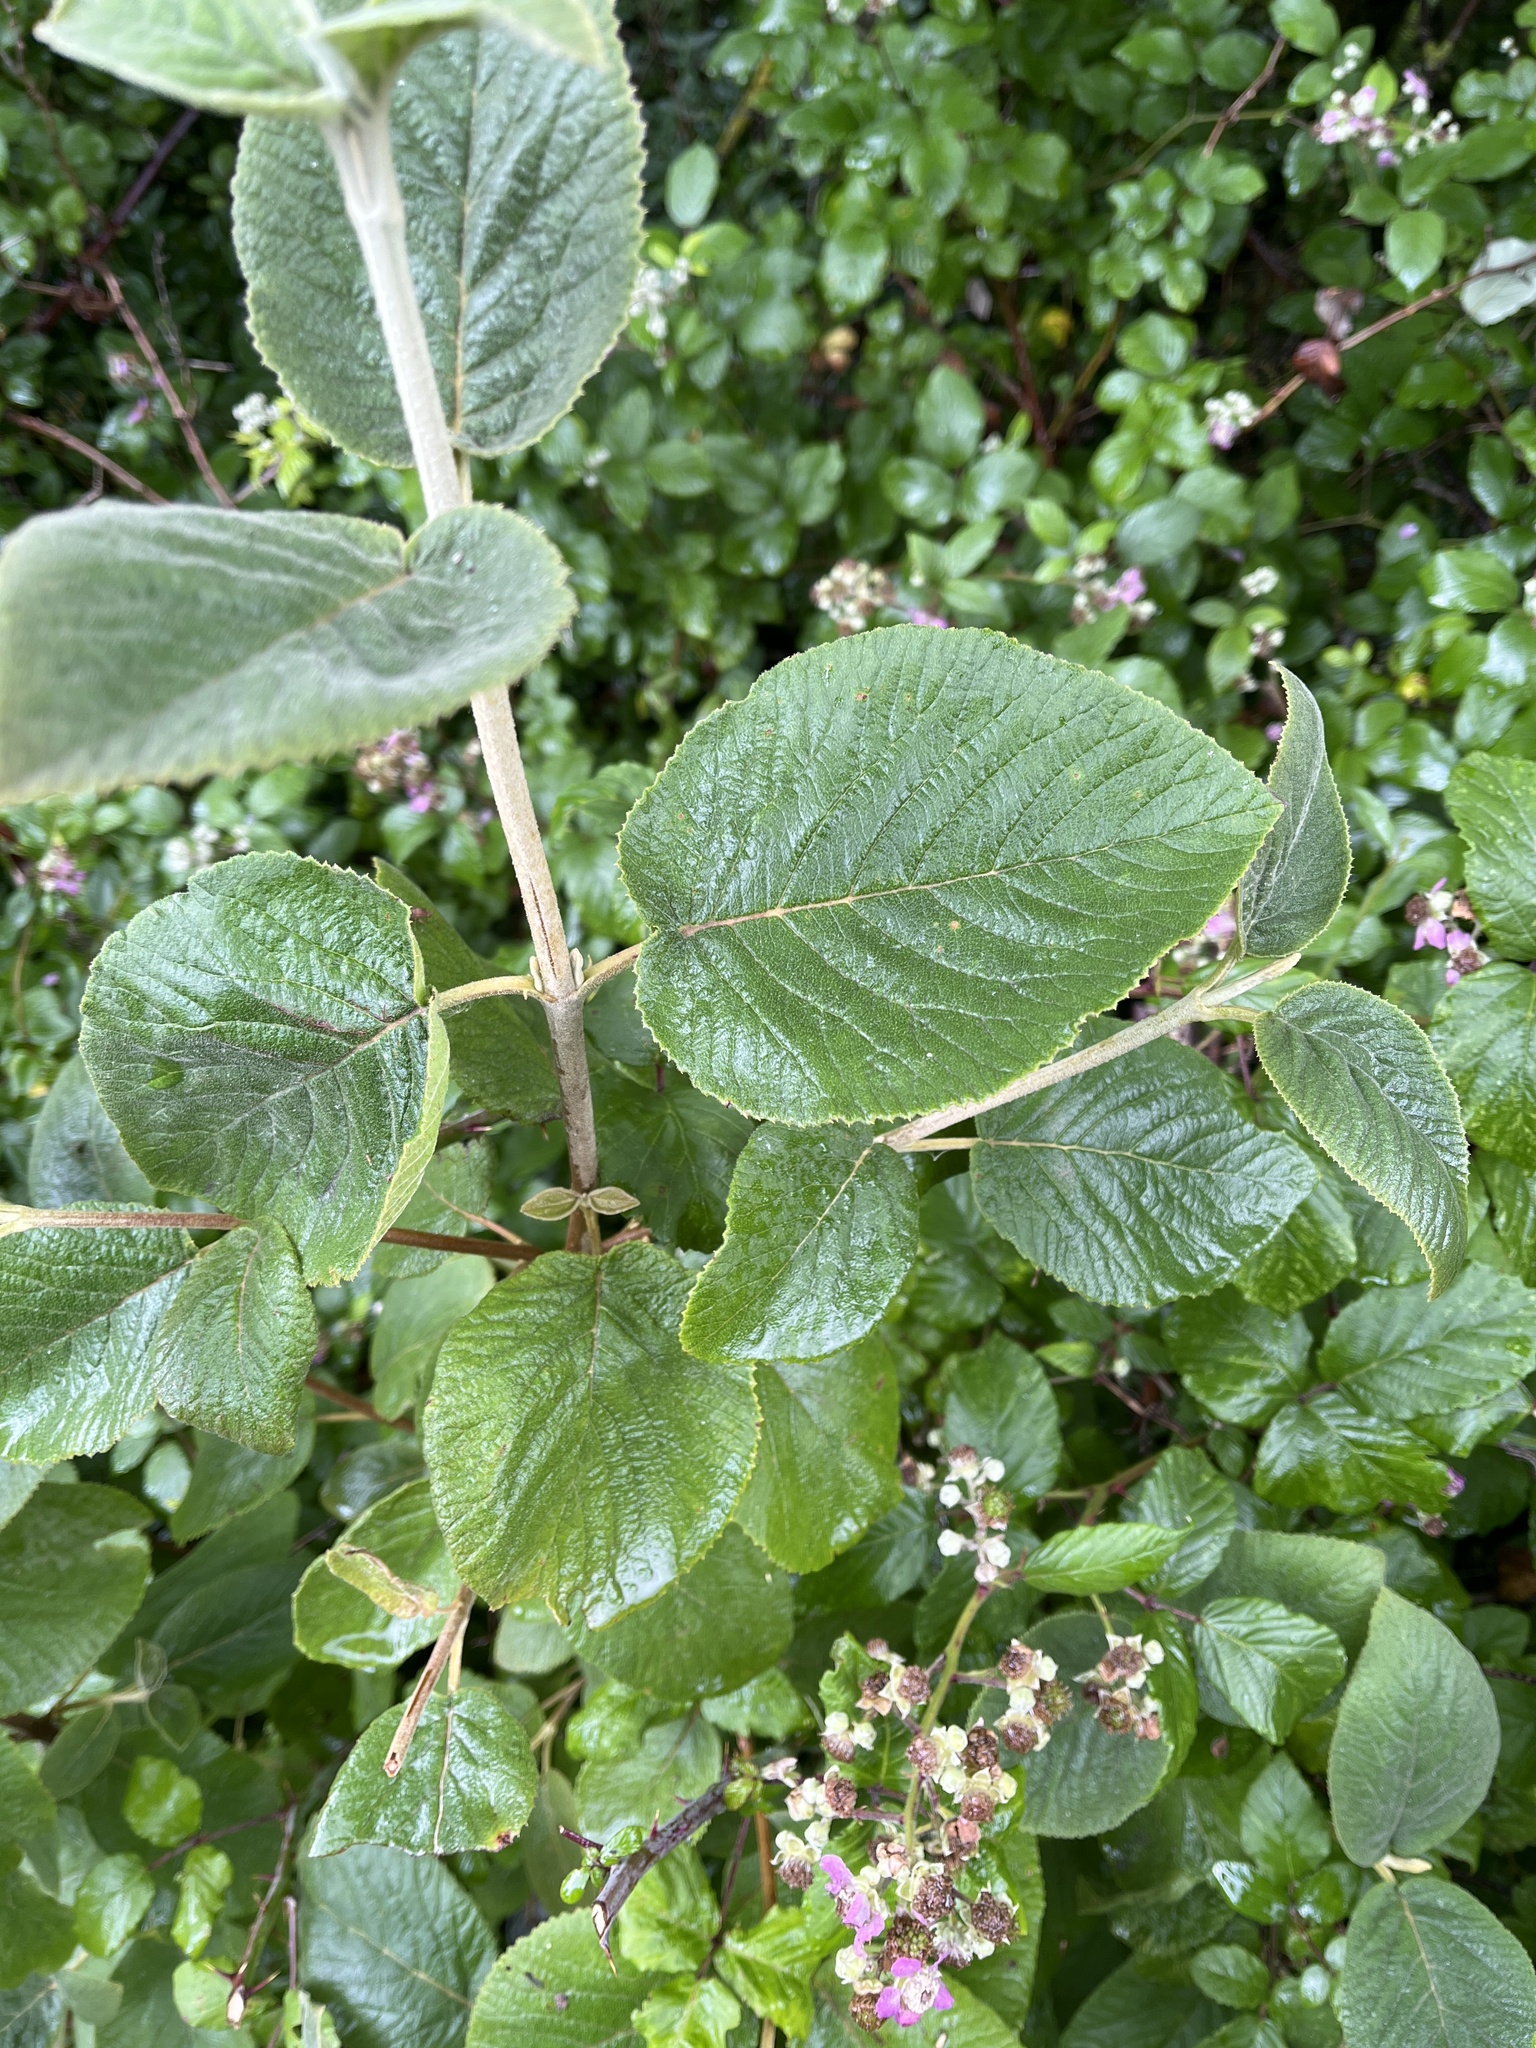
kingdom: Plantae
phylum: Tracheophyta
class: Magnoliopsida
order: Dipsacales
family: Viburnaceae
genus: Viburnum
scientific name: Viburnum lantana
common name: Wayfaring tree
